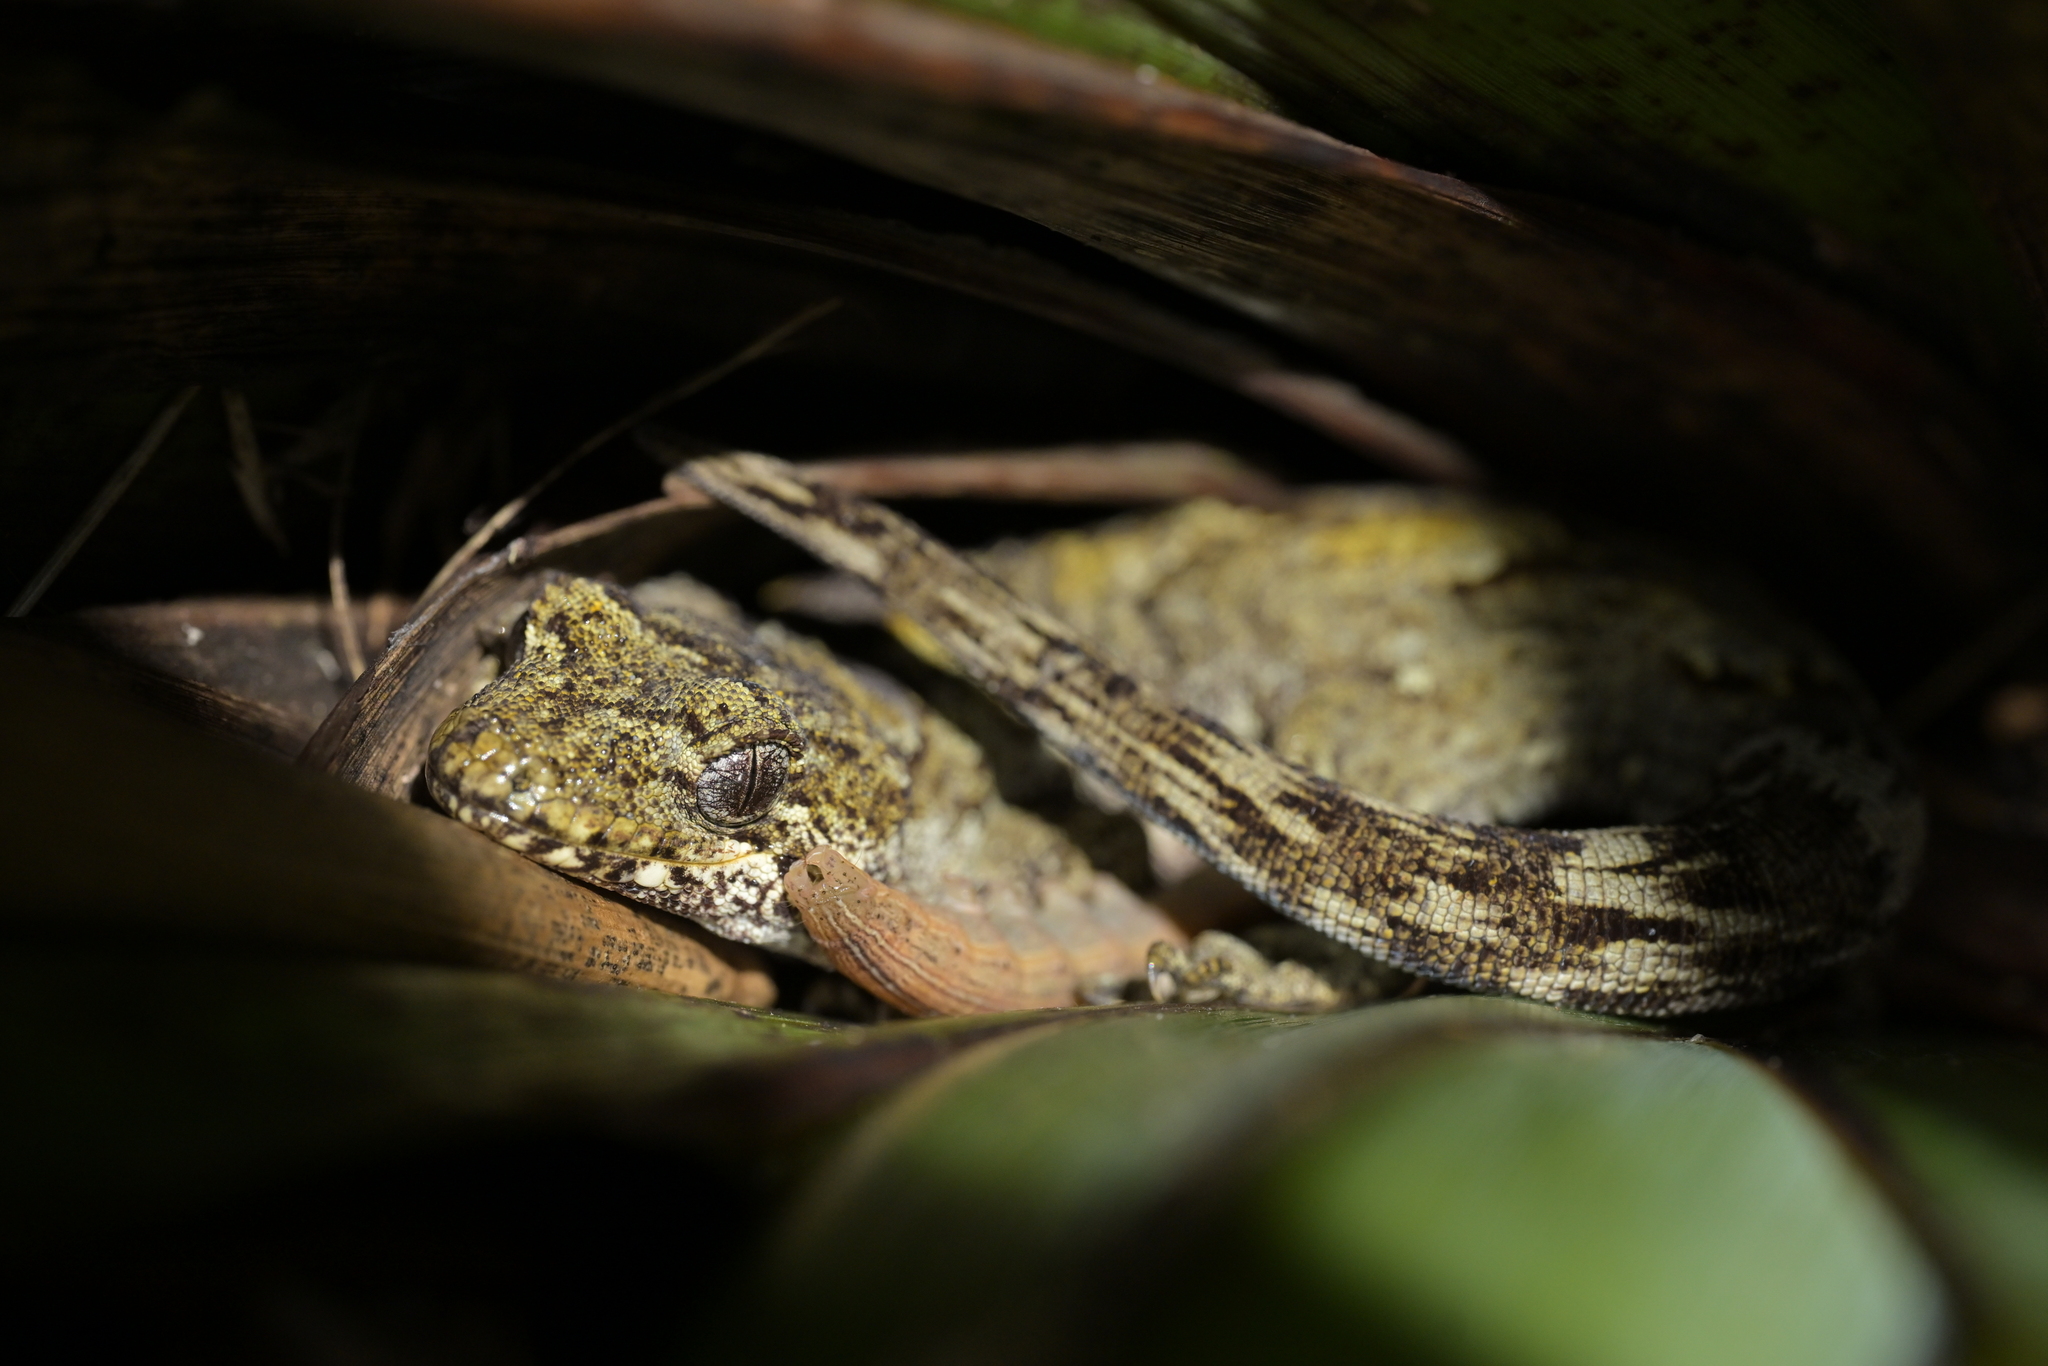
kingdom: Animalia
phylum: Chordata
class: Squamata
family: Diplodactylidae
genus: Mokopirirakau
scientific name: Mokopirirakau
